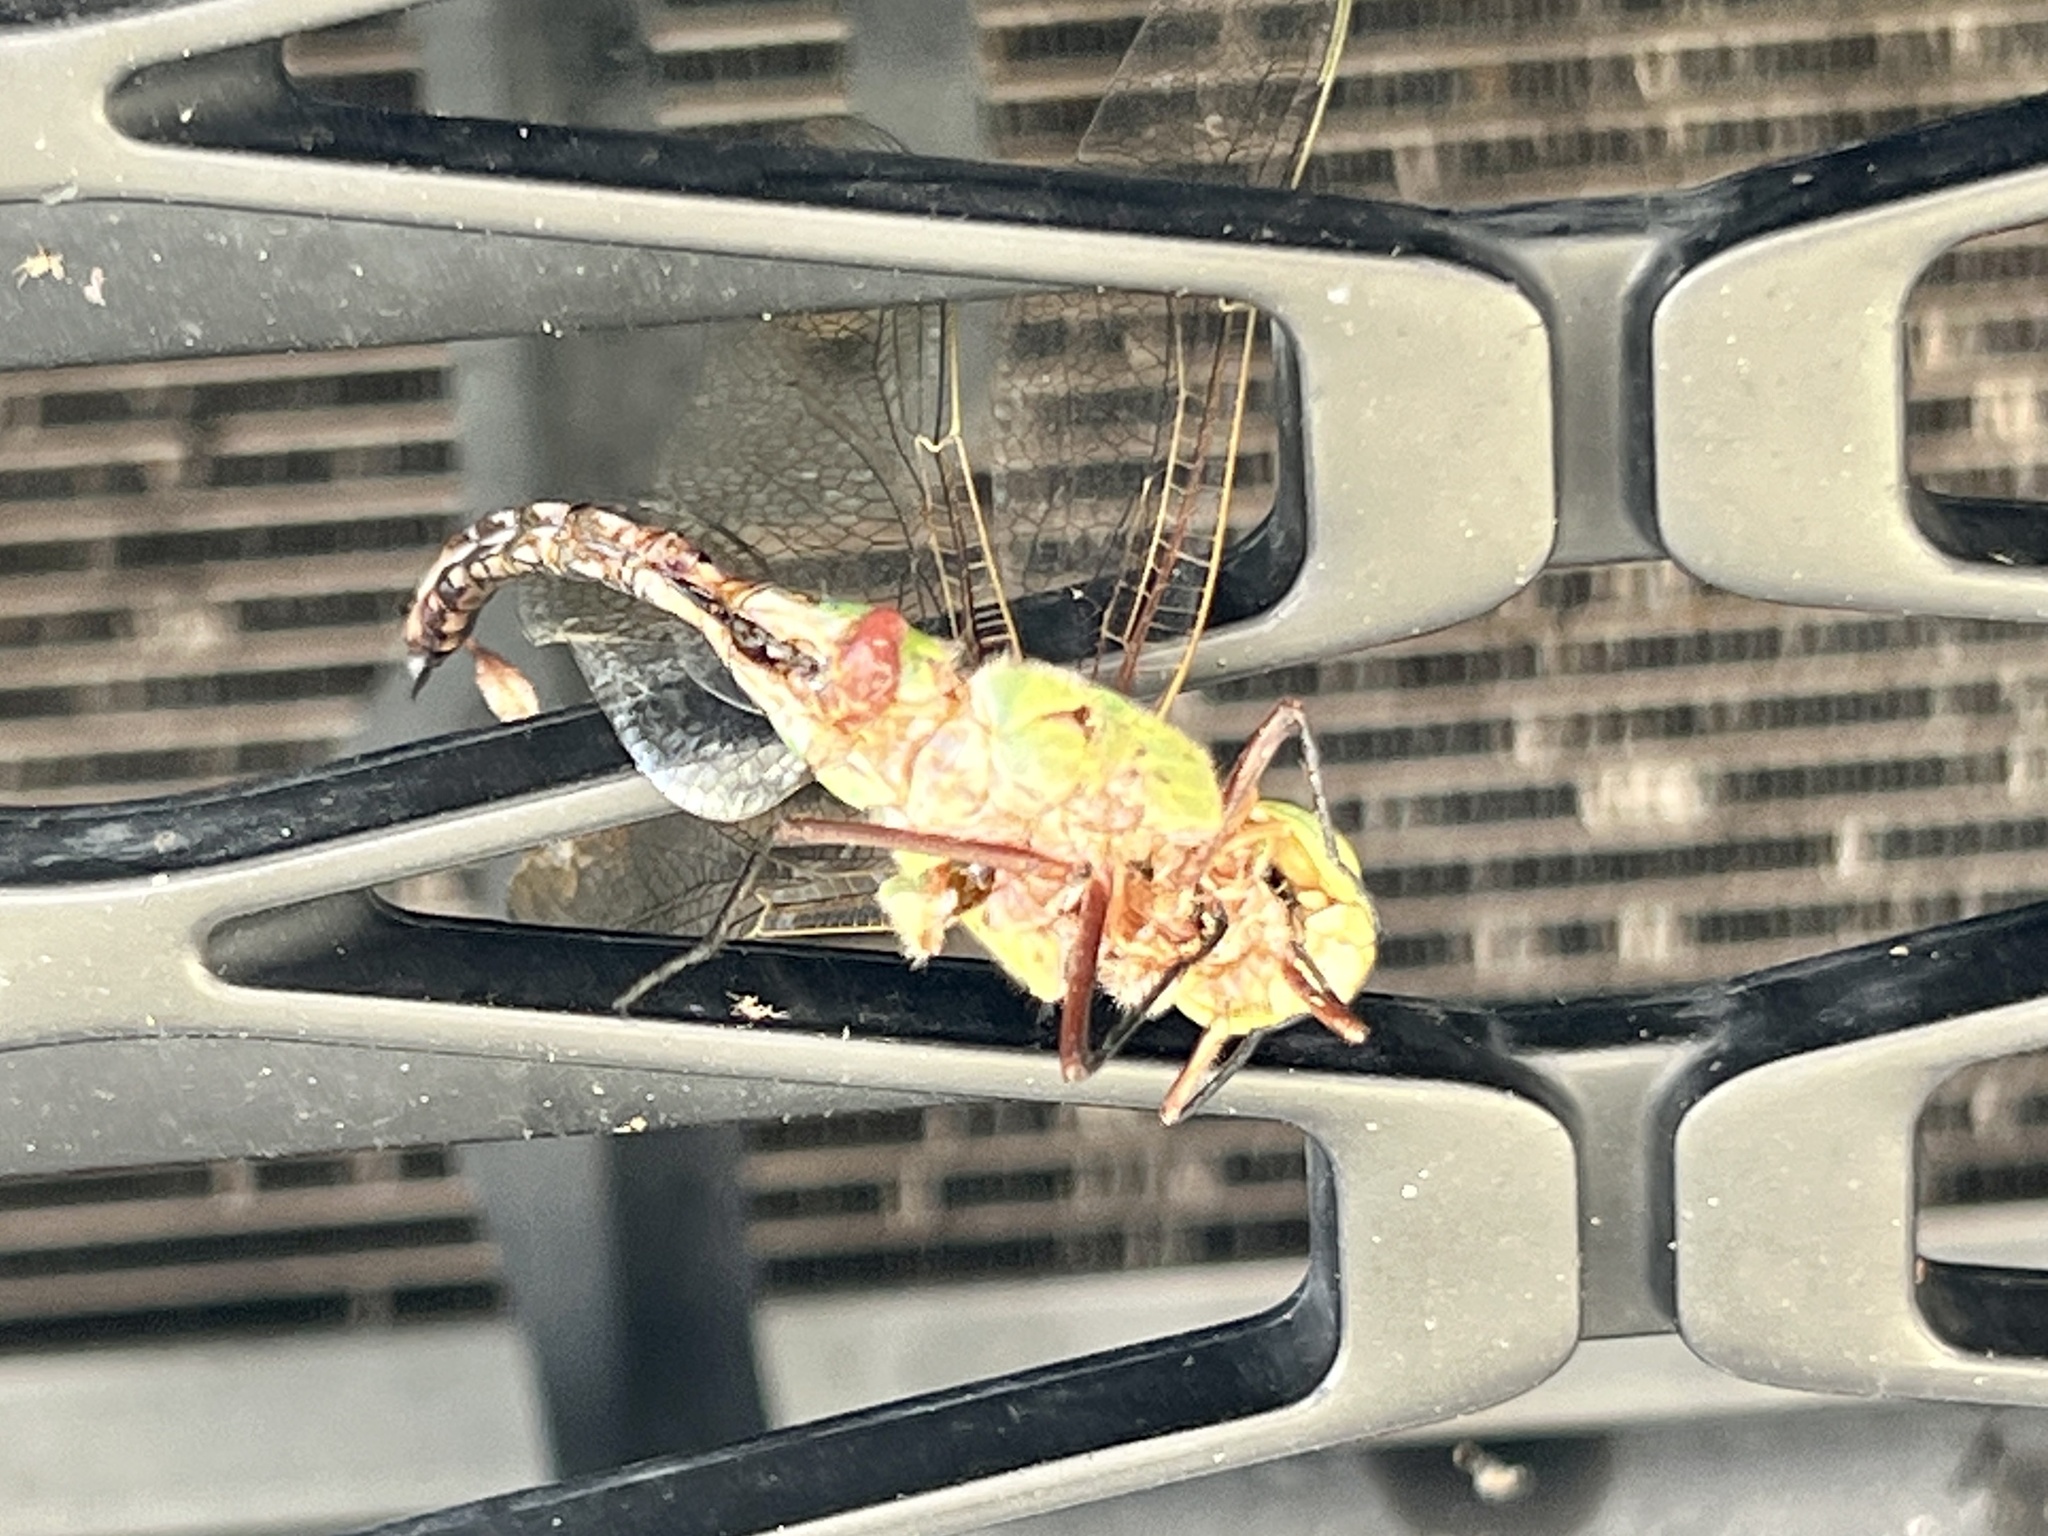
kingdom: Animalia
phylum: Arthropoda
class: Insecta
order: Odonata
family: Aeshnidae
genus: Anax
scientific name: Anax junius
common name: Common green darner
